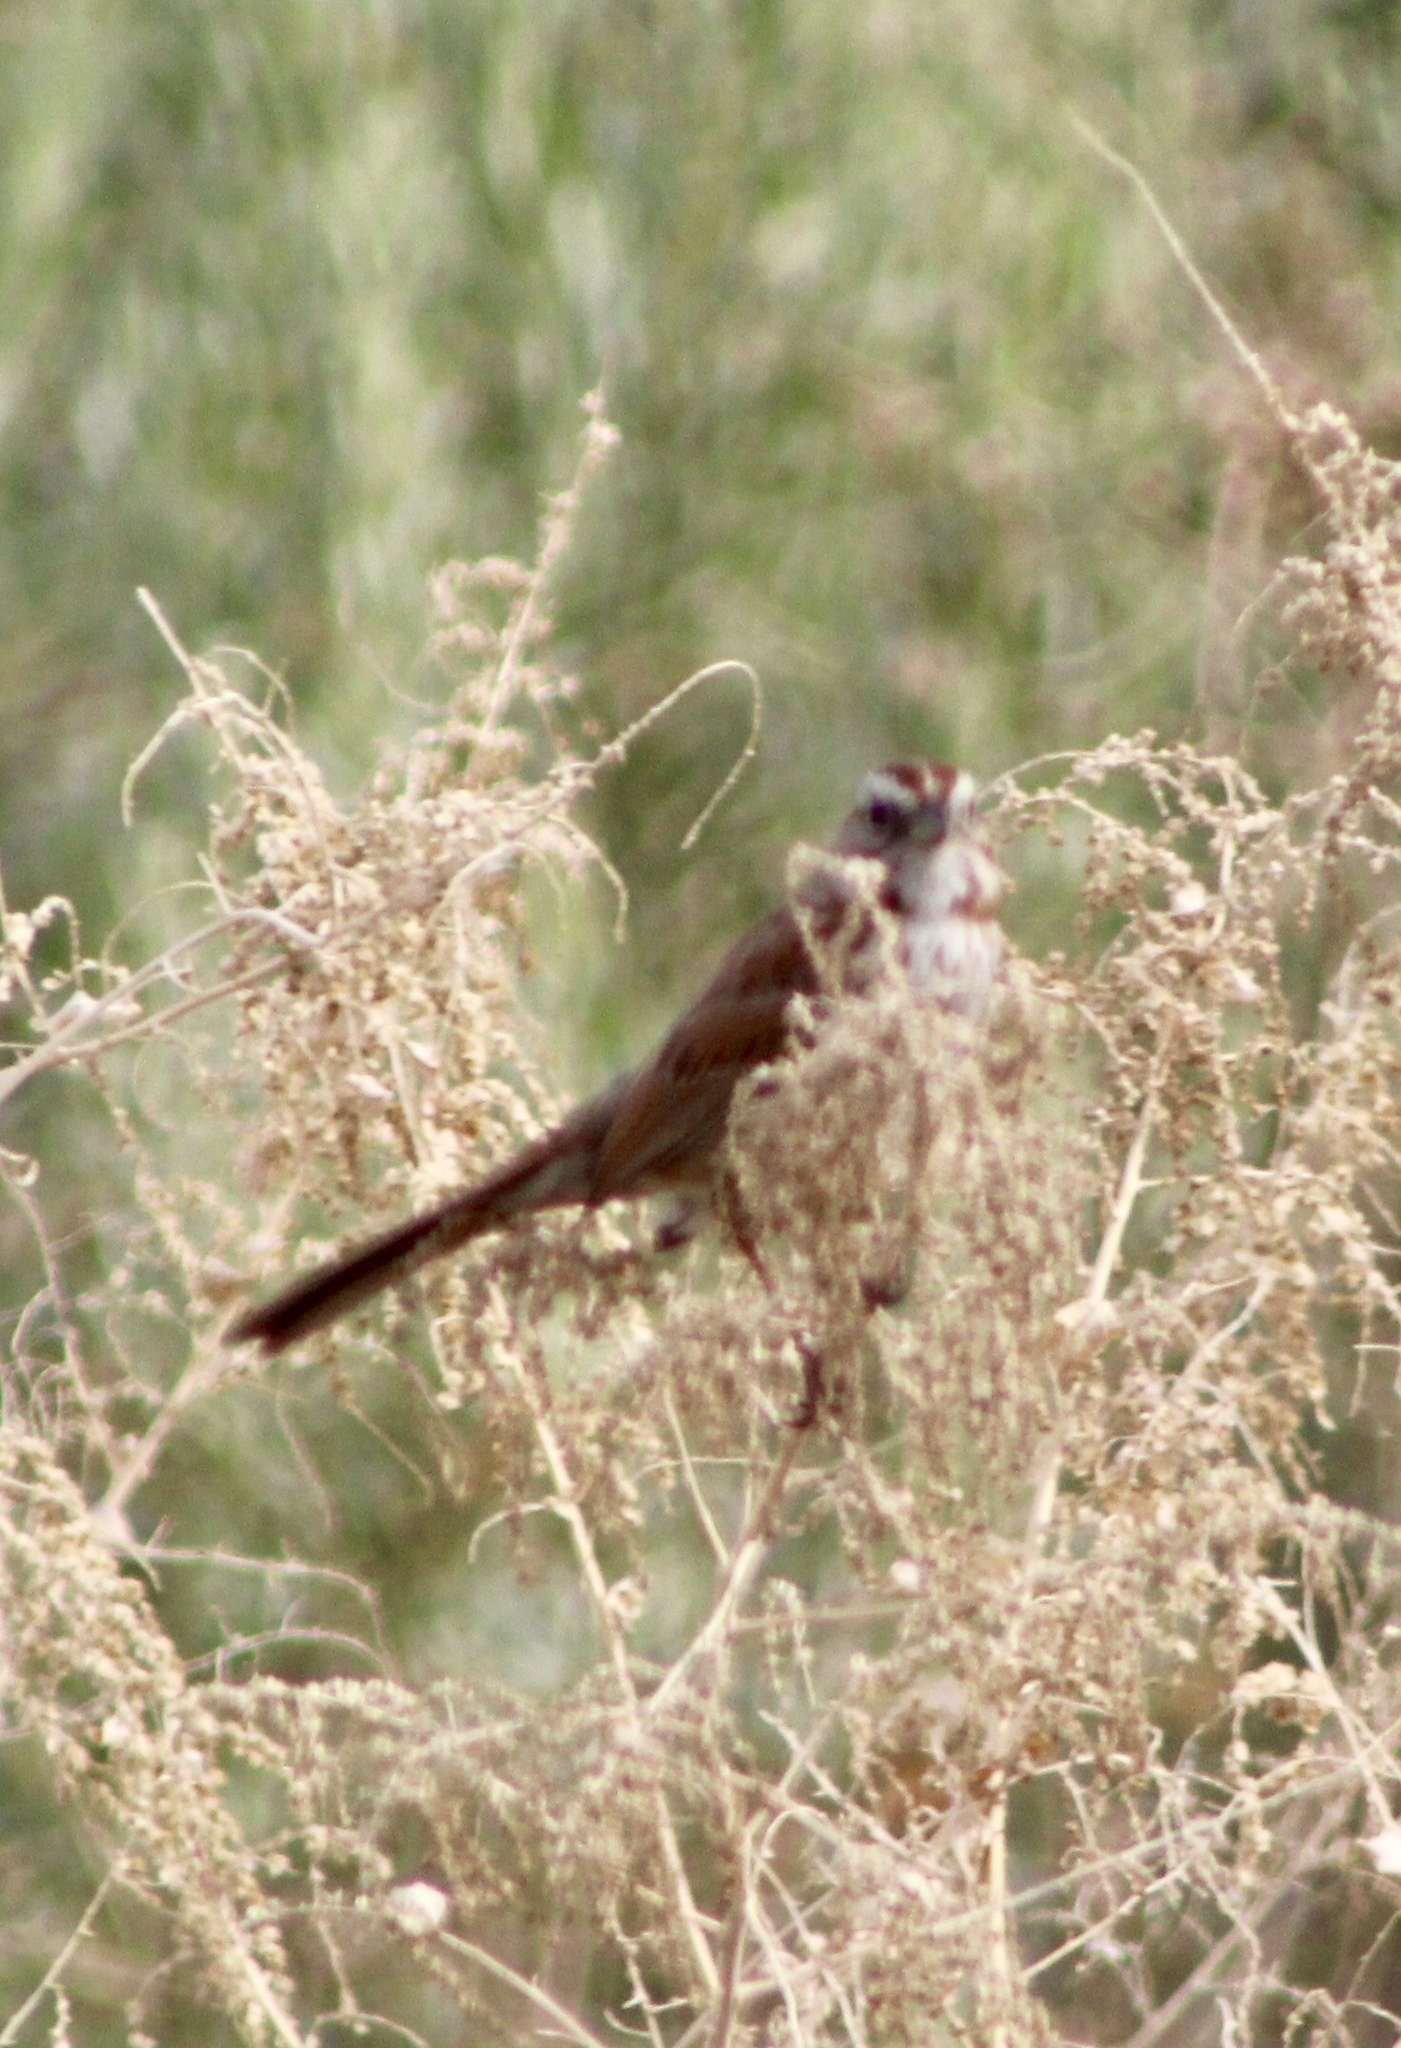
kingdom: Animalia
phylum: Chordata
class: Aves
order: Passeriformes
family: Passerellidae
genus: Melospiza
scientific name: Melospiza melodia
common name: Song sparrow
